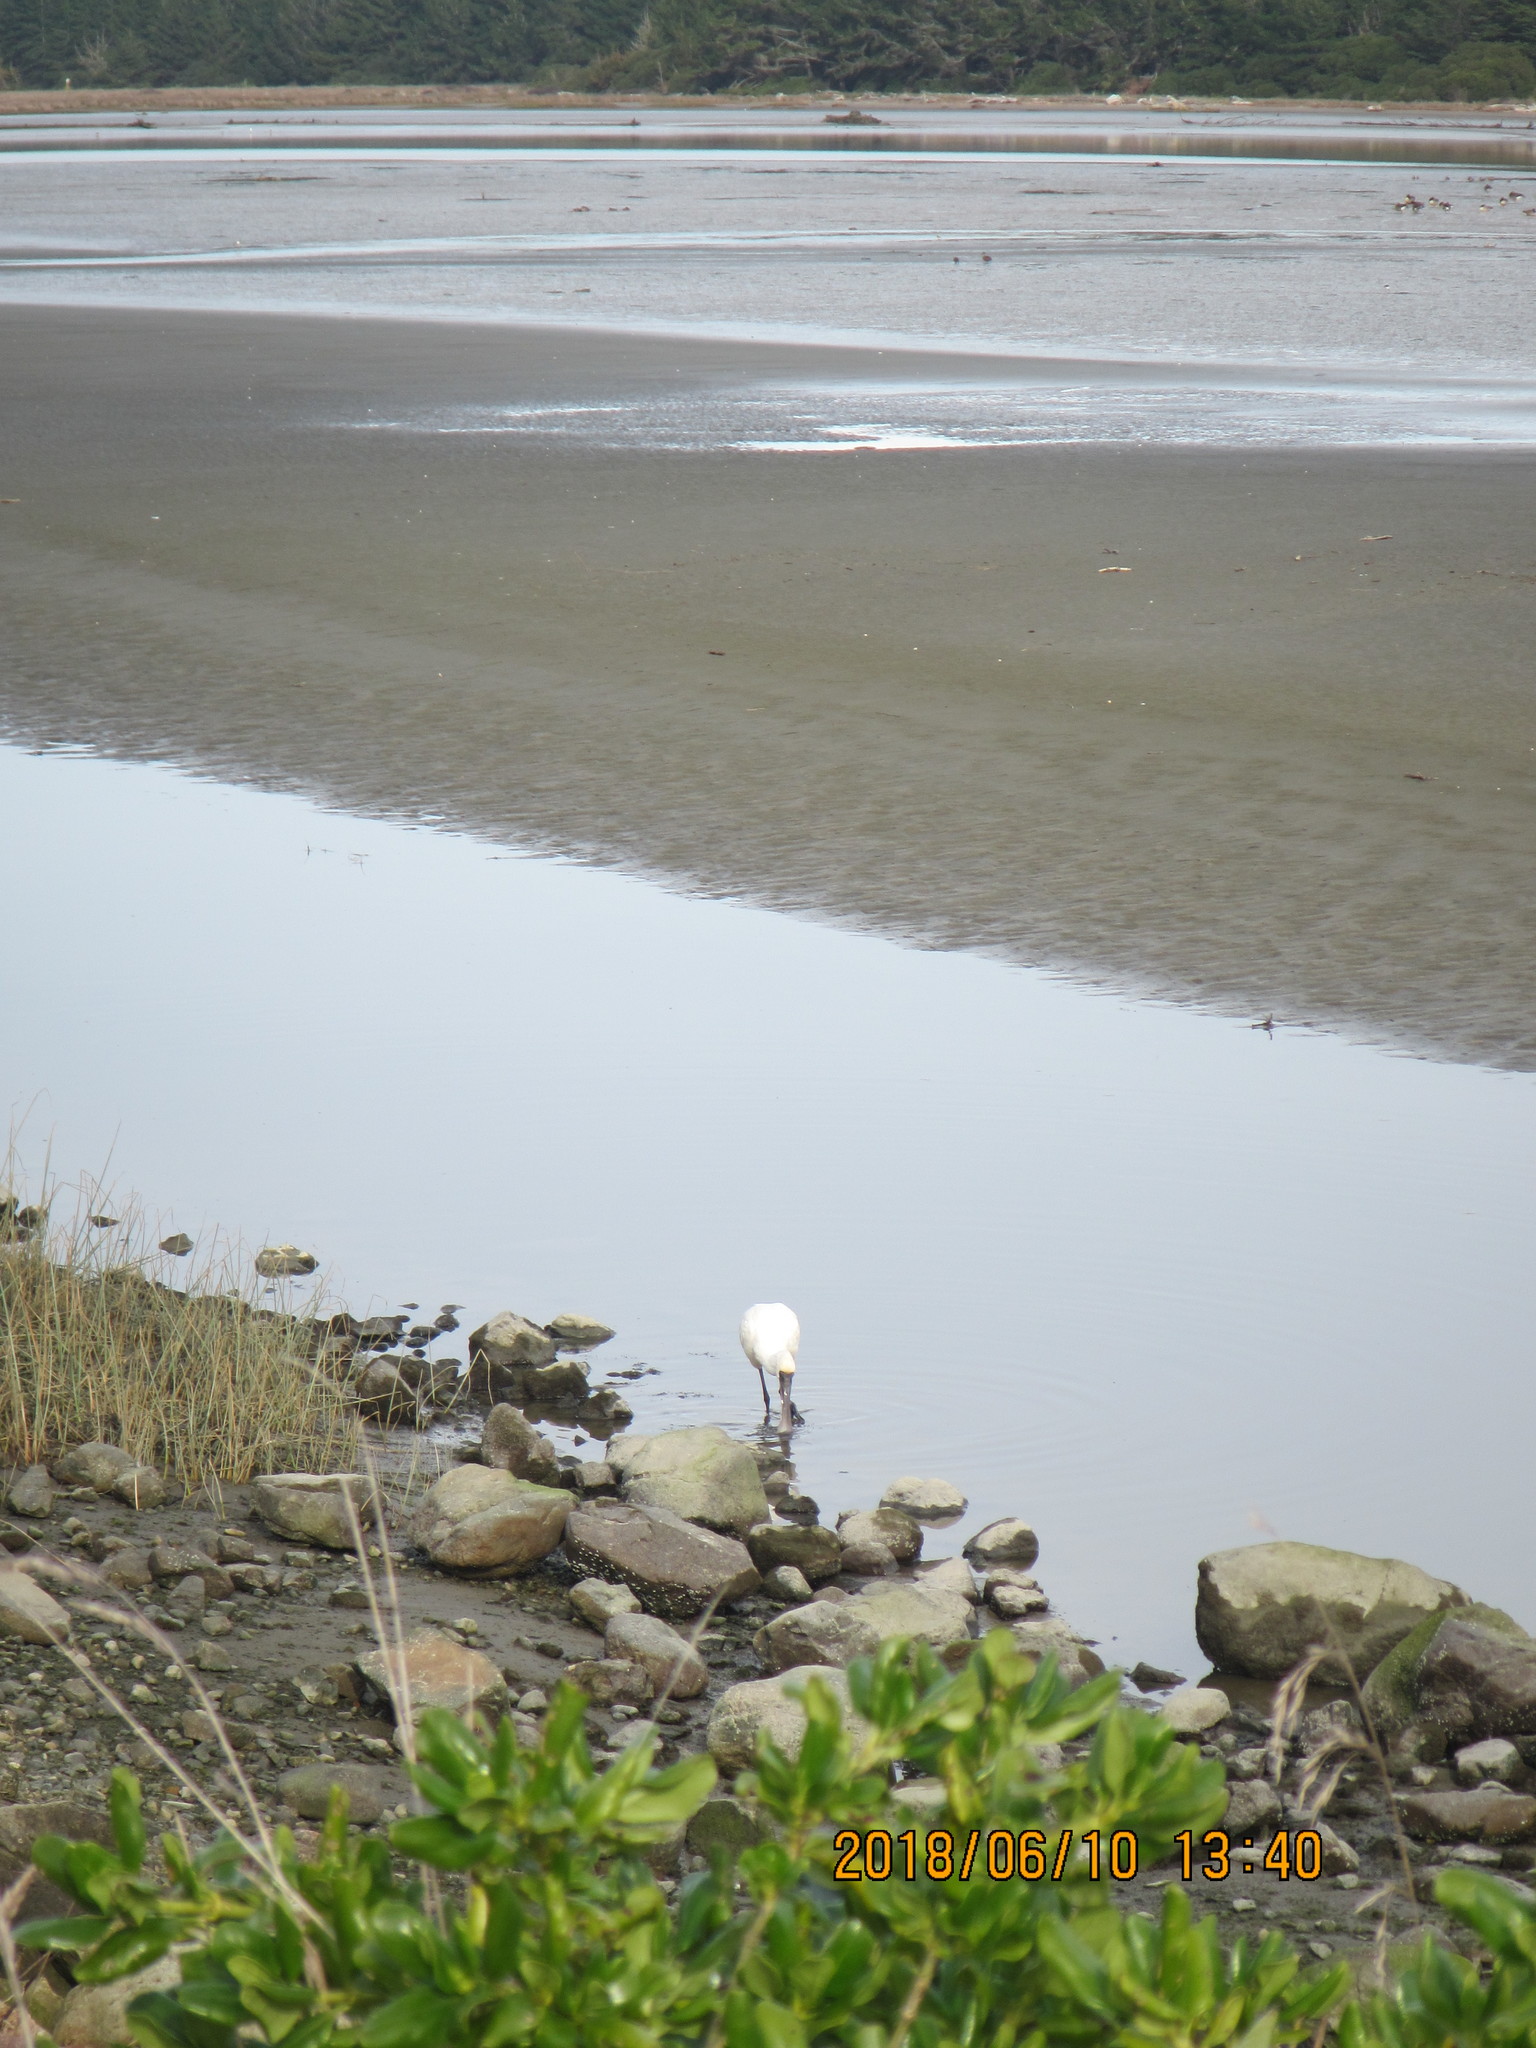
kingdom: Animalia
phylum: Chordata
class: Aves
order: Pelecaniformes
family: Threskiornithidae
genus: Platalea
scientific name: Platalea regia
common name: Royal spoonbill
